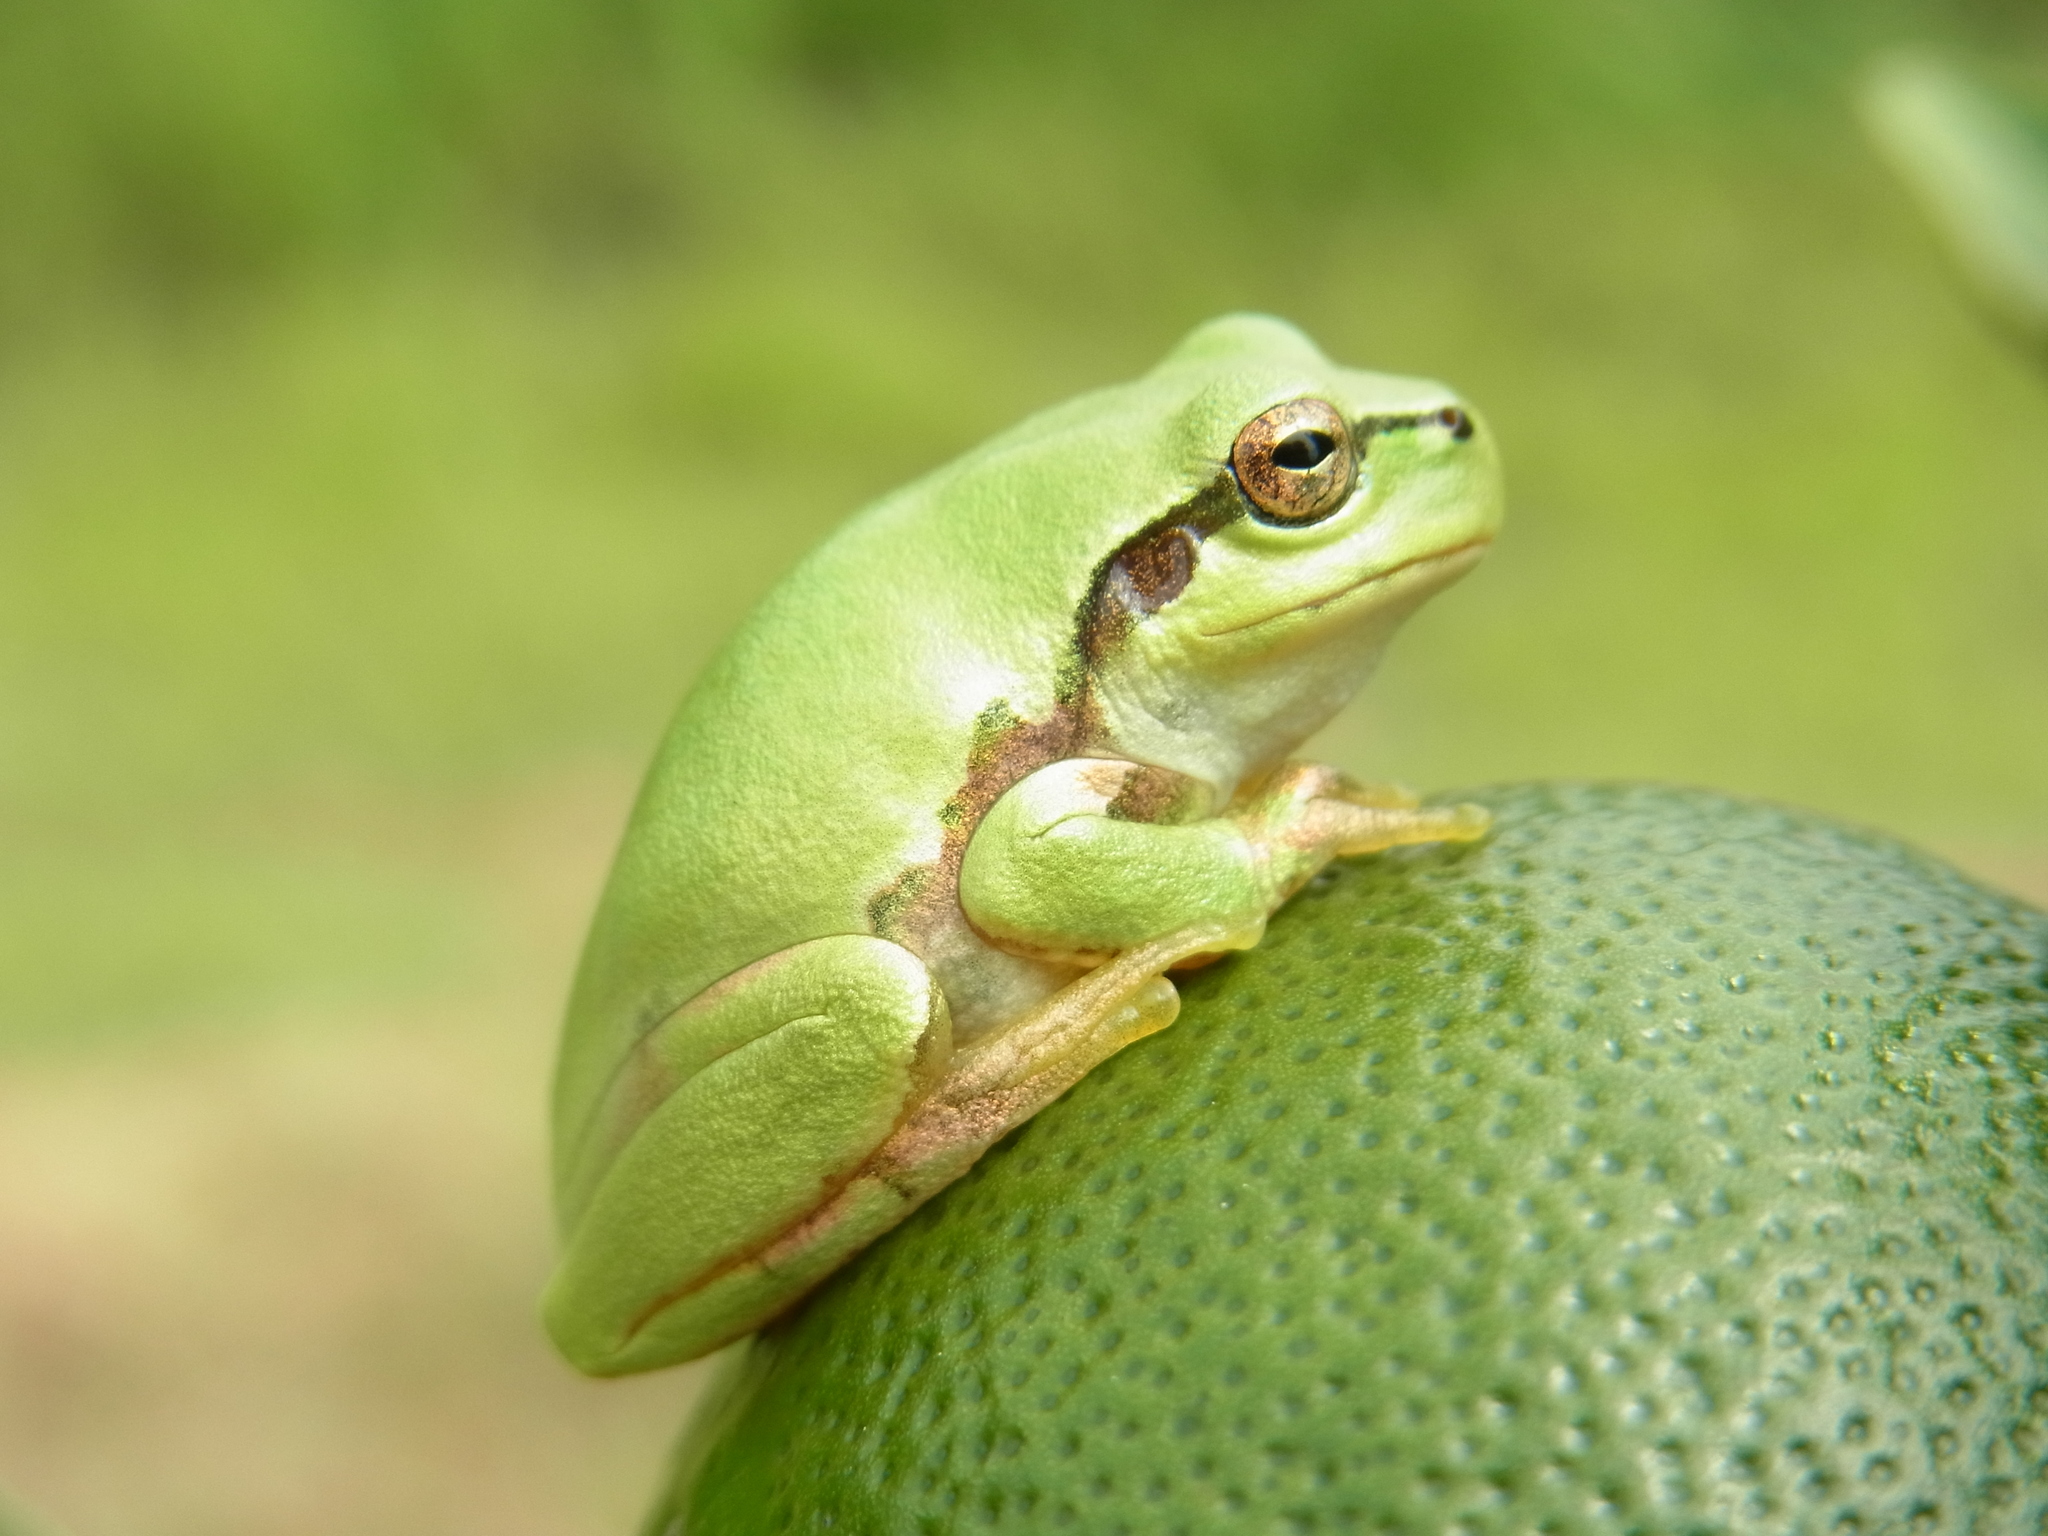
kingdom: Animalia
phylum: Chordata
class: Amphibia
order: Anura
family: Hylidae
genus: Dryophytes
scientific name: Dryophytes japonicus
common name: Japanese treefrog
